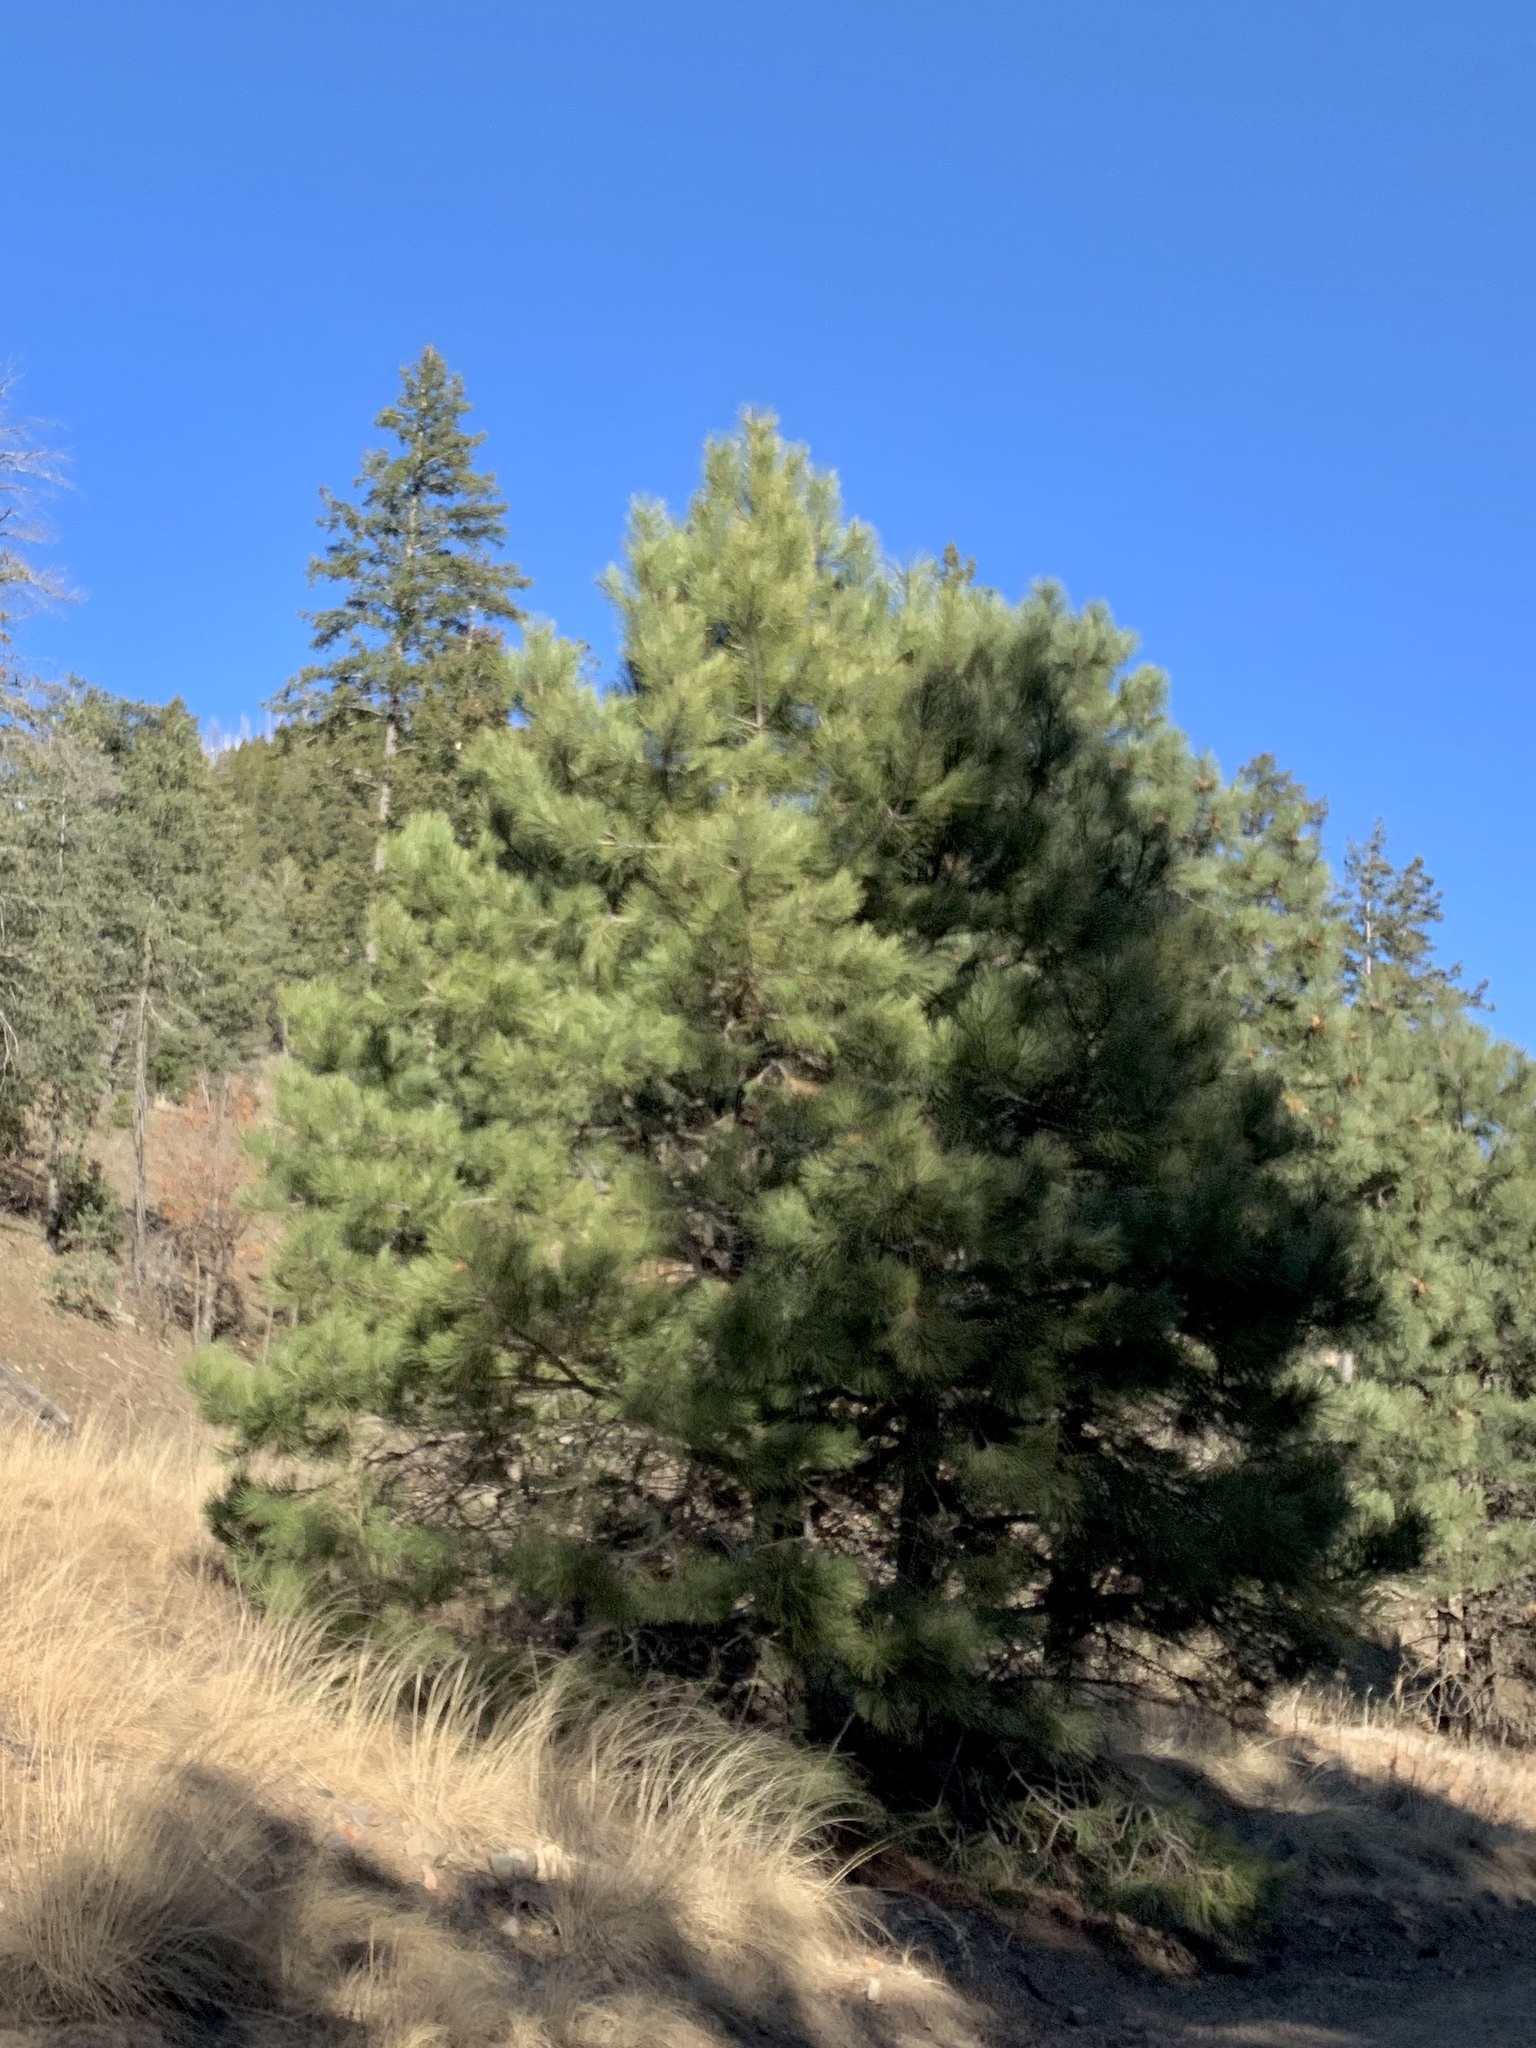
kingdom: Plantae
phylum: Tracheophyta
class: Pinopsida
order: Pinales
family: Pinaceae
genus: Pinus
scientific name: Pinus ponderosa
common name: Western yellow-pine
